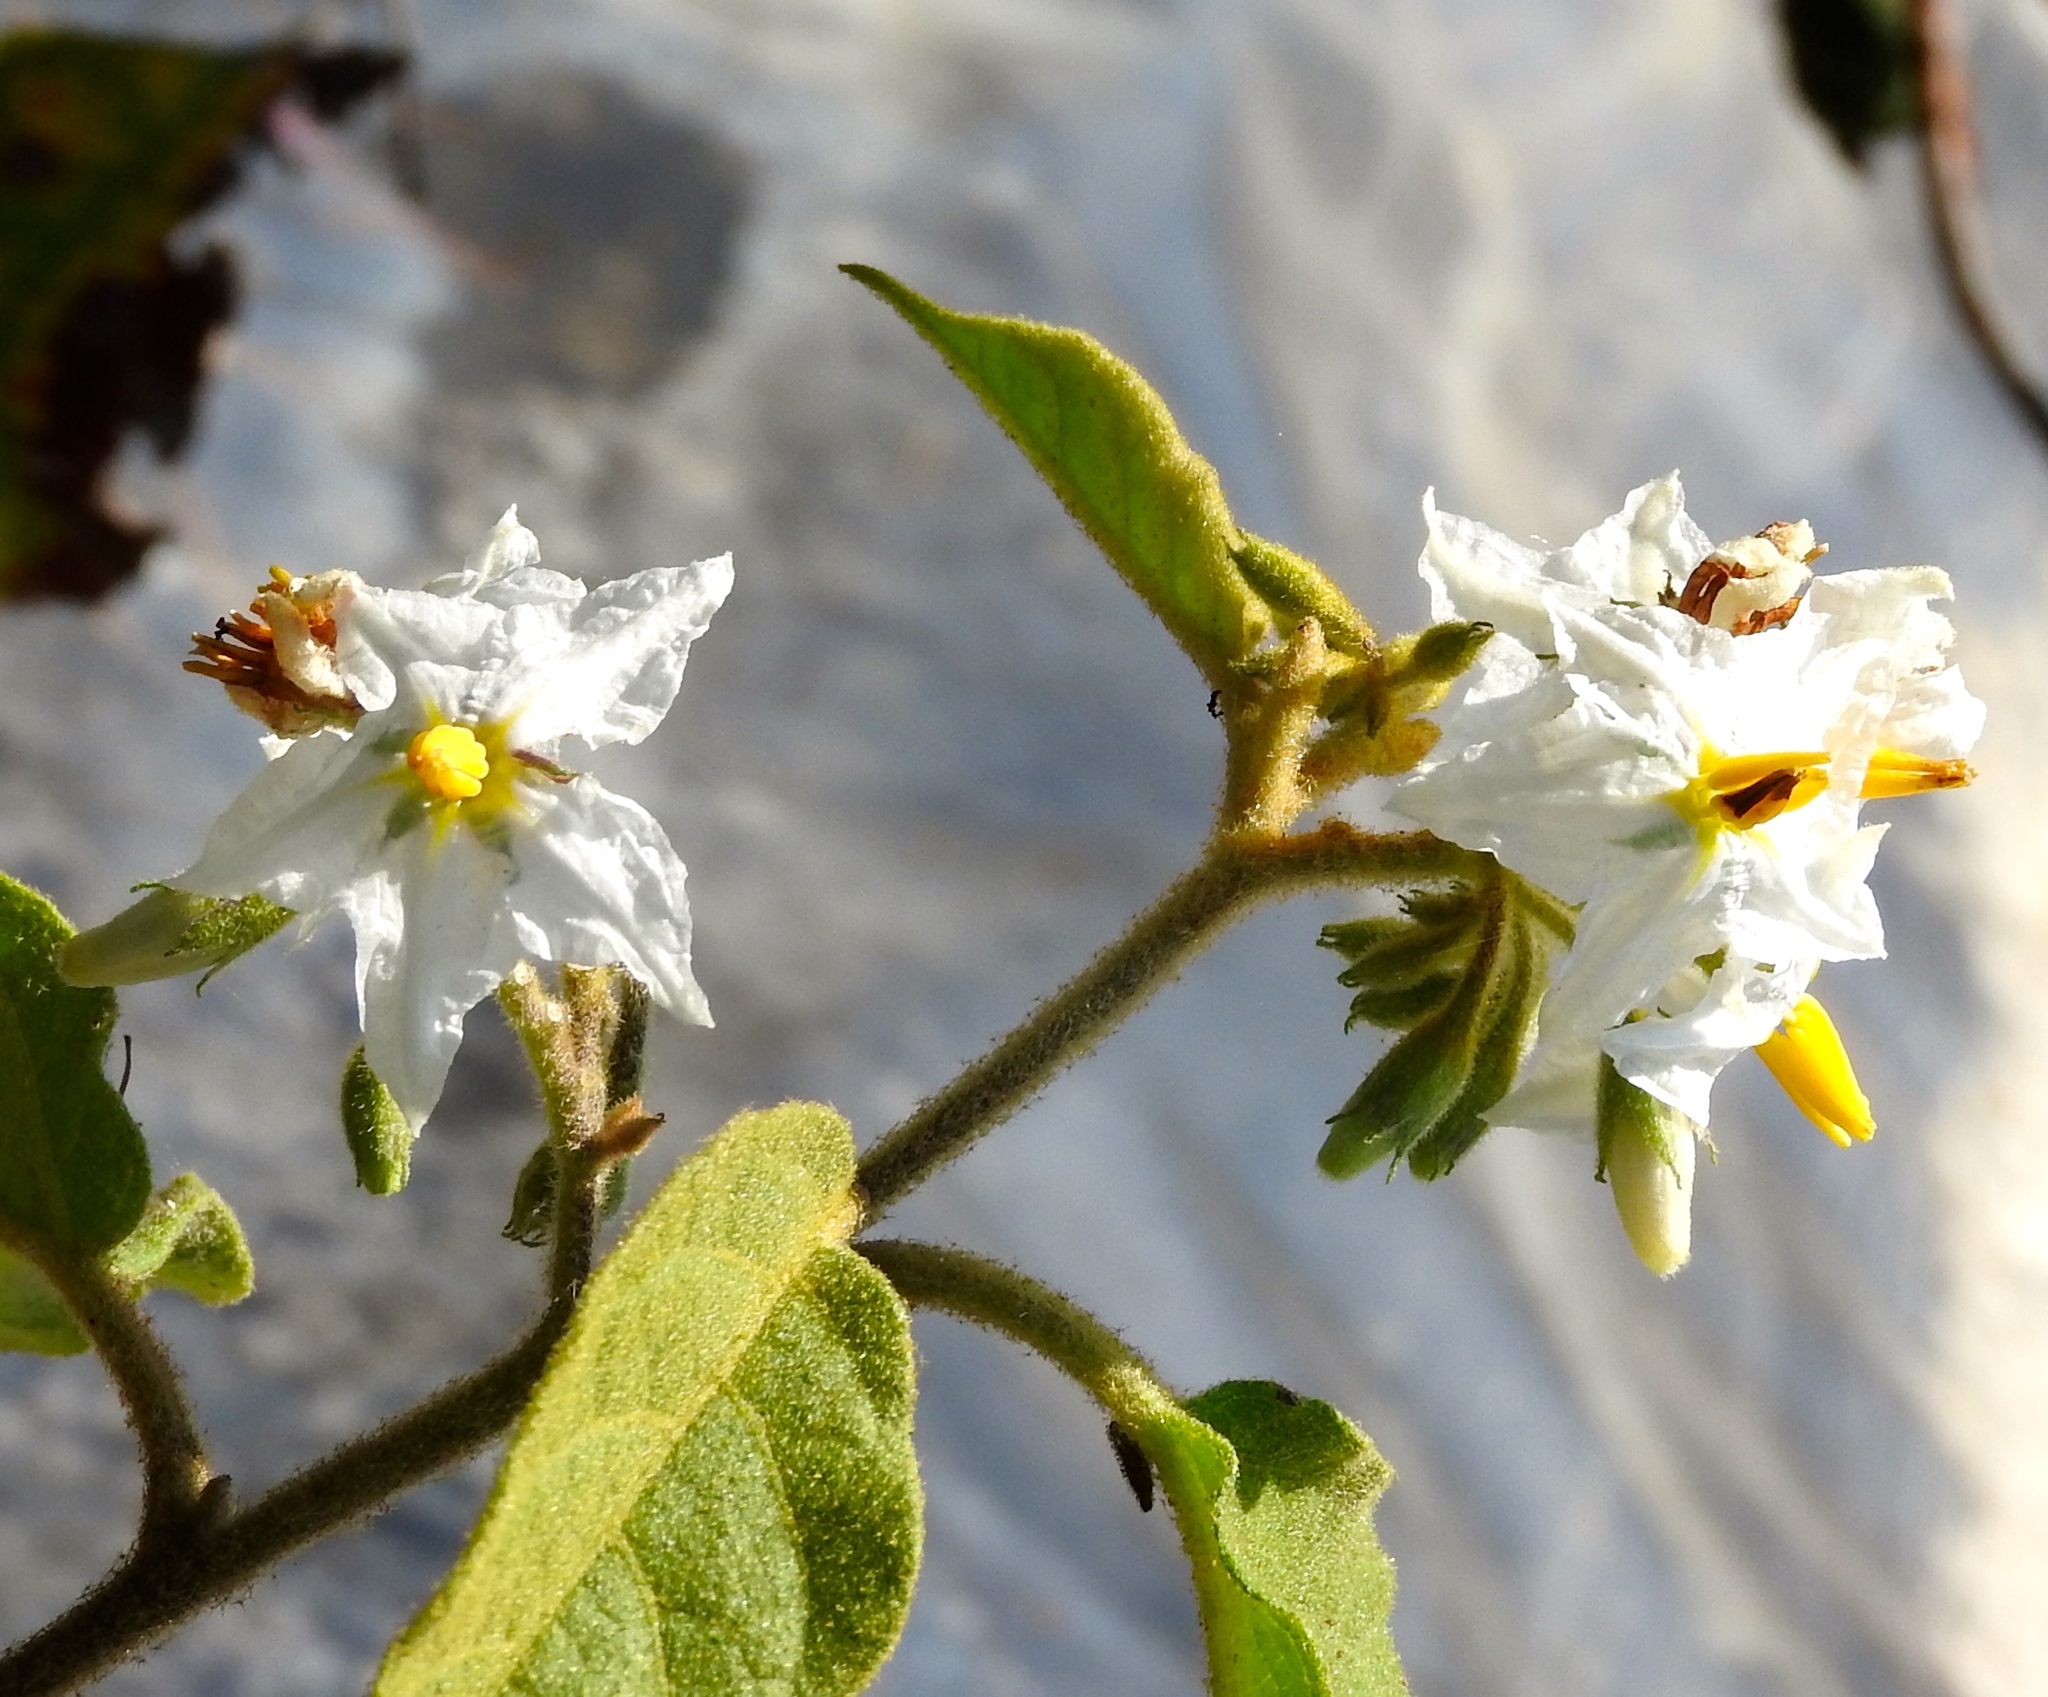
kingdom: Plantae
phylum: Tracheophyta
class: Magnoliopsida
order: Solanales
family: Solanaceae
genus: Solanum
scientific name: Solanum ferrugineum
